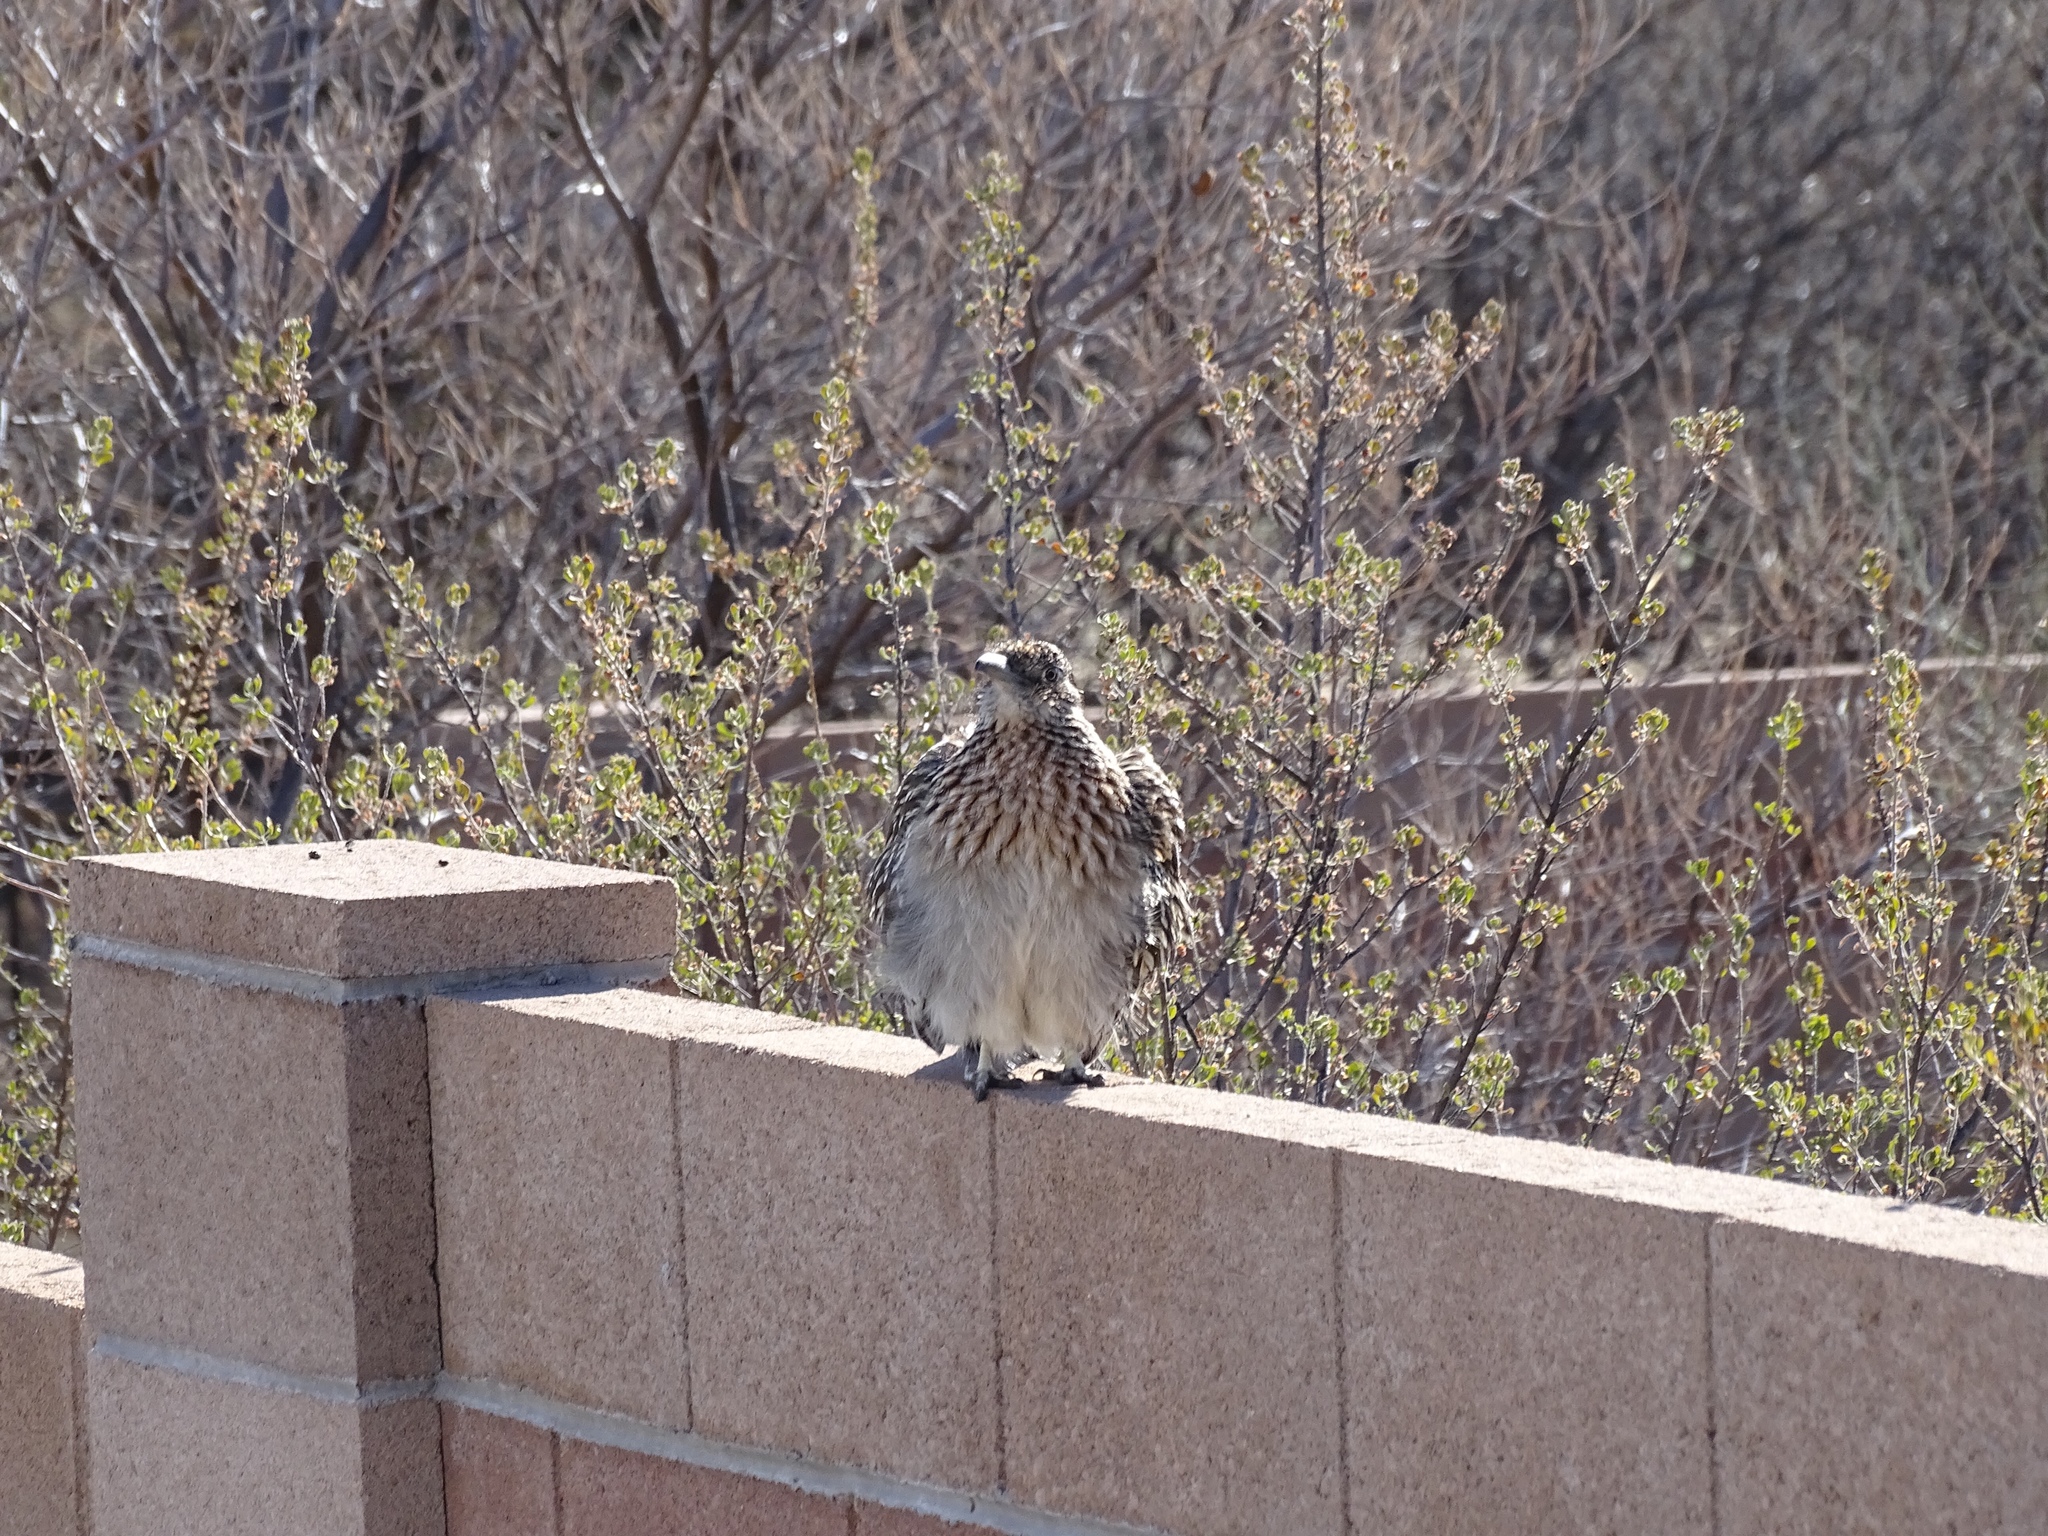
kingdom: Animalia
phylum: Chordata
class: Aves
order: Cuculiformes
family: Cuculidae
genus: Geococcyx
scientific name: Geococcyx californianus
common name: Greater roadrunner
